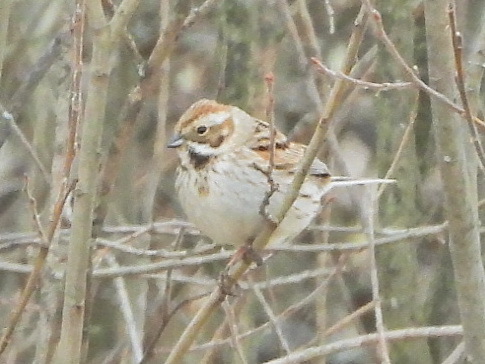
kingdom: Animalia
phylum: Chordata
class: Aves
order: Passeriformes
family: Emberizidae
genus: Emberiza
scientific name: Emberiza schoeniclus
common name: Reed bunting
